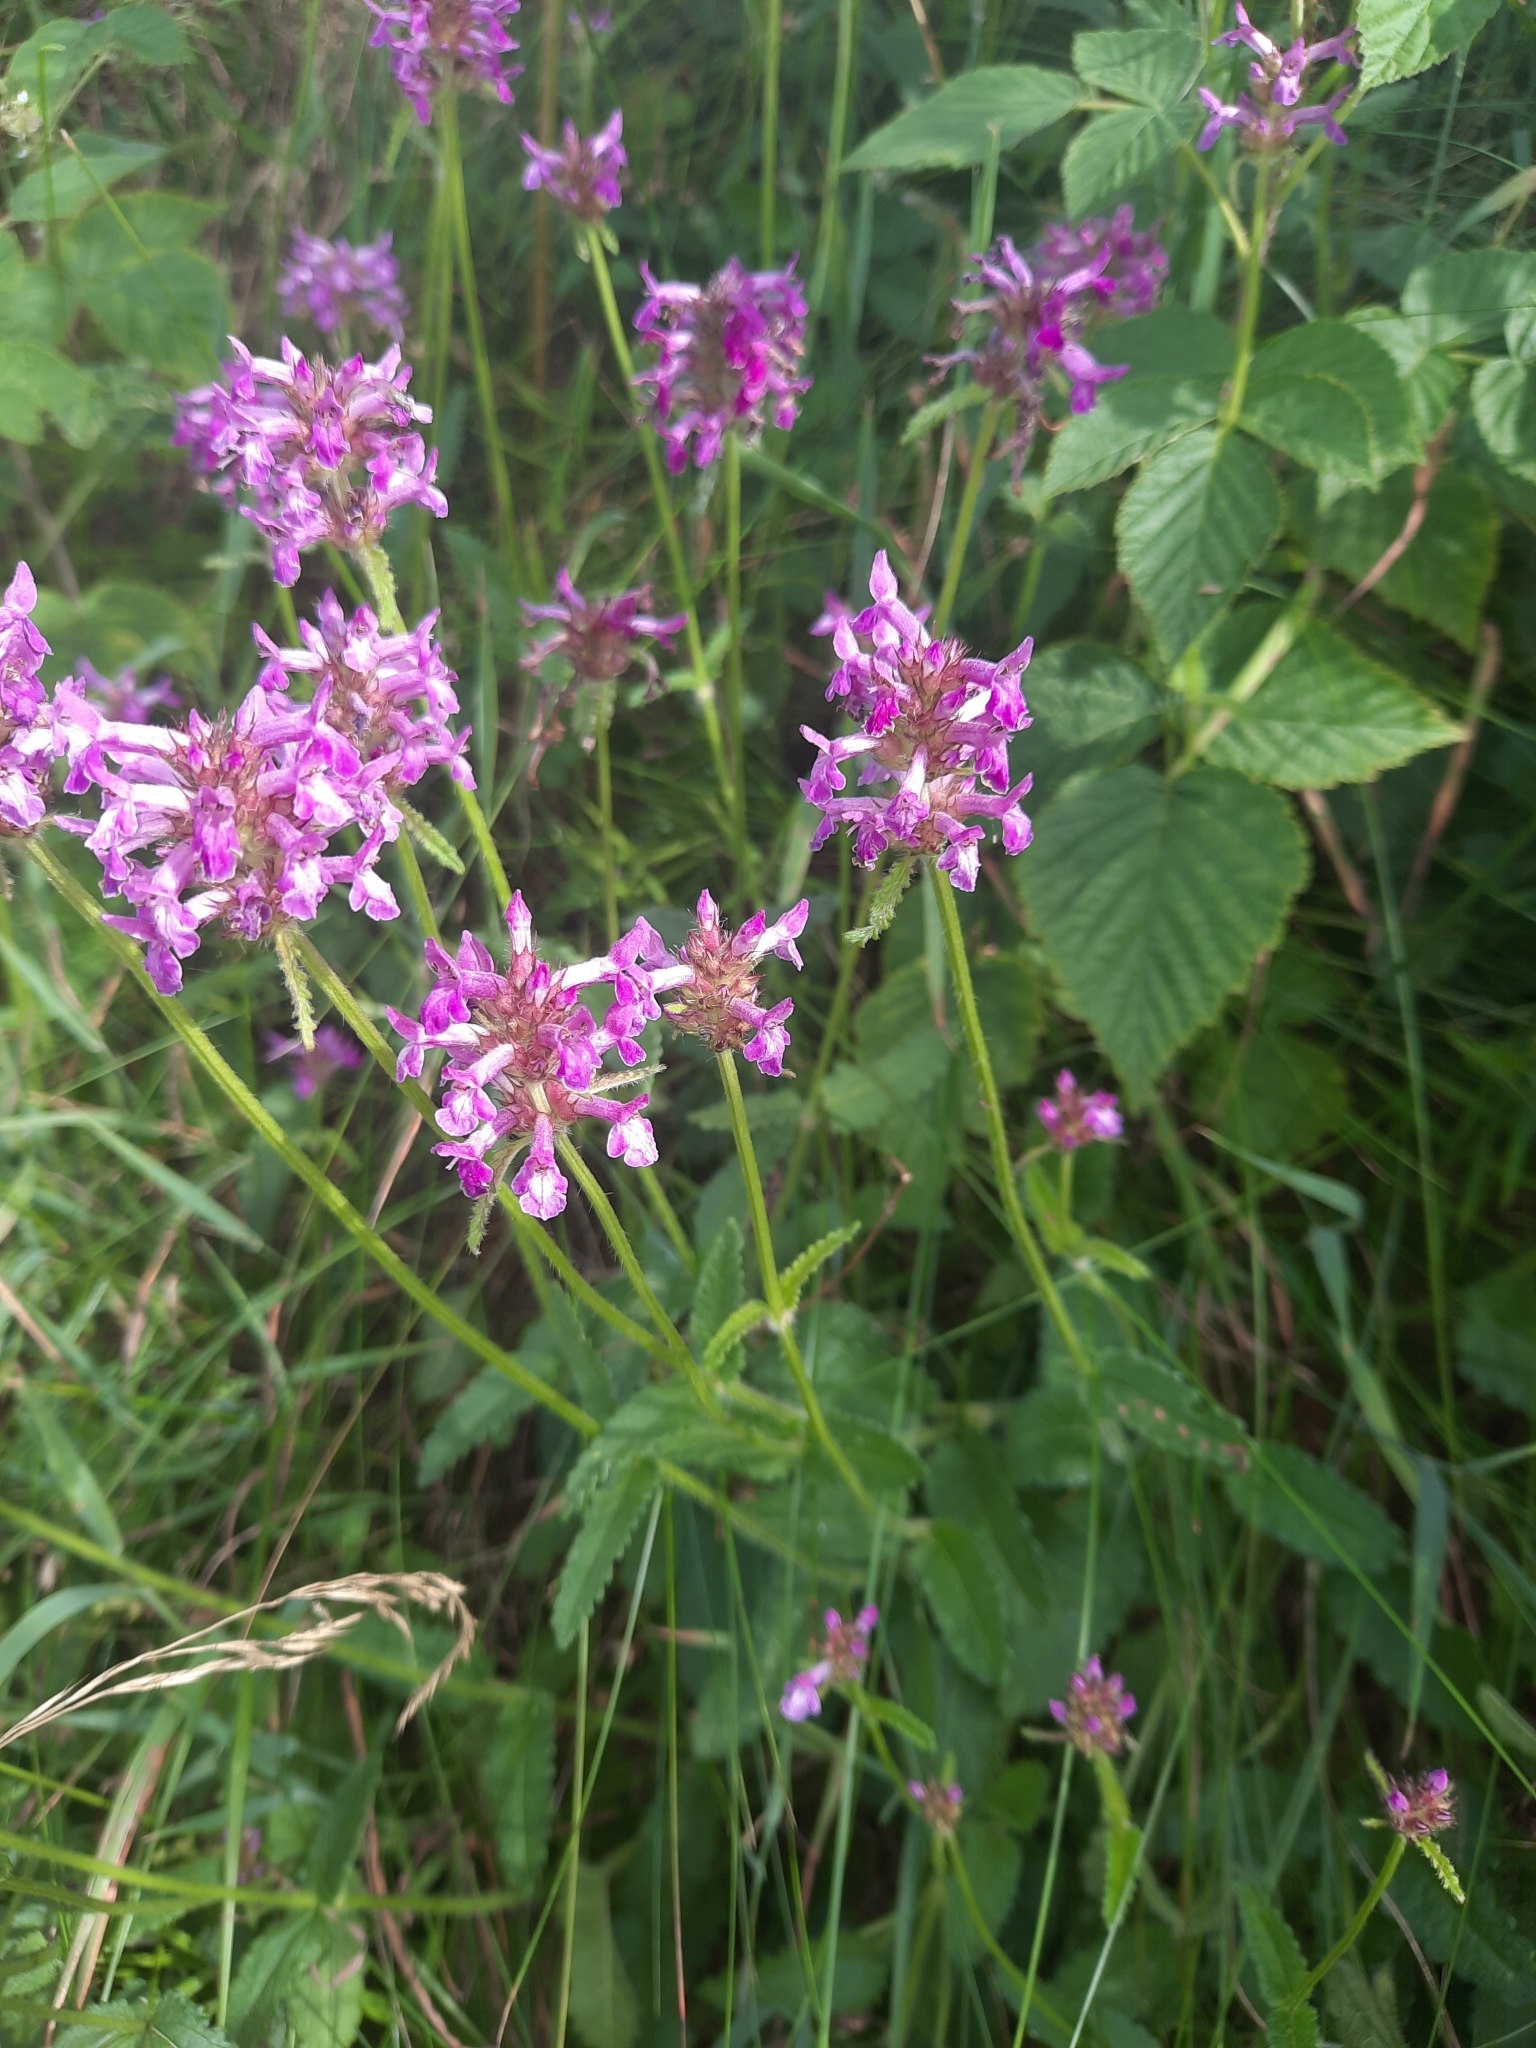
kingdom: Plantae
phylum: Tracheophyta
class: Magnoliopsida
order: Lamiales
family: Lamiaceae
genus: Betonica
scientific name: Betonica officinalis
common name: Bishop's-wort
